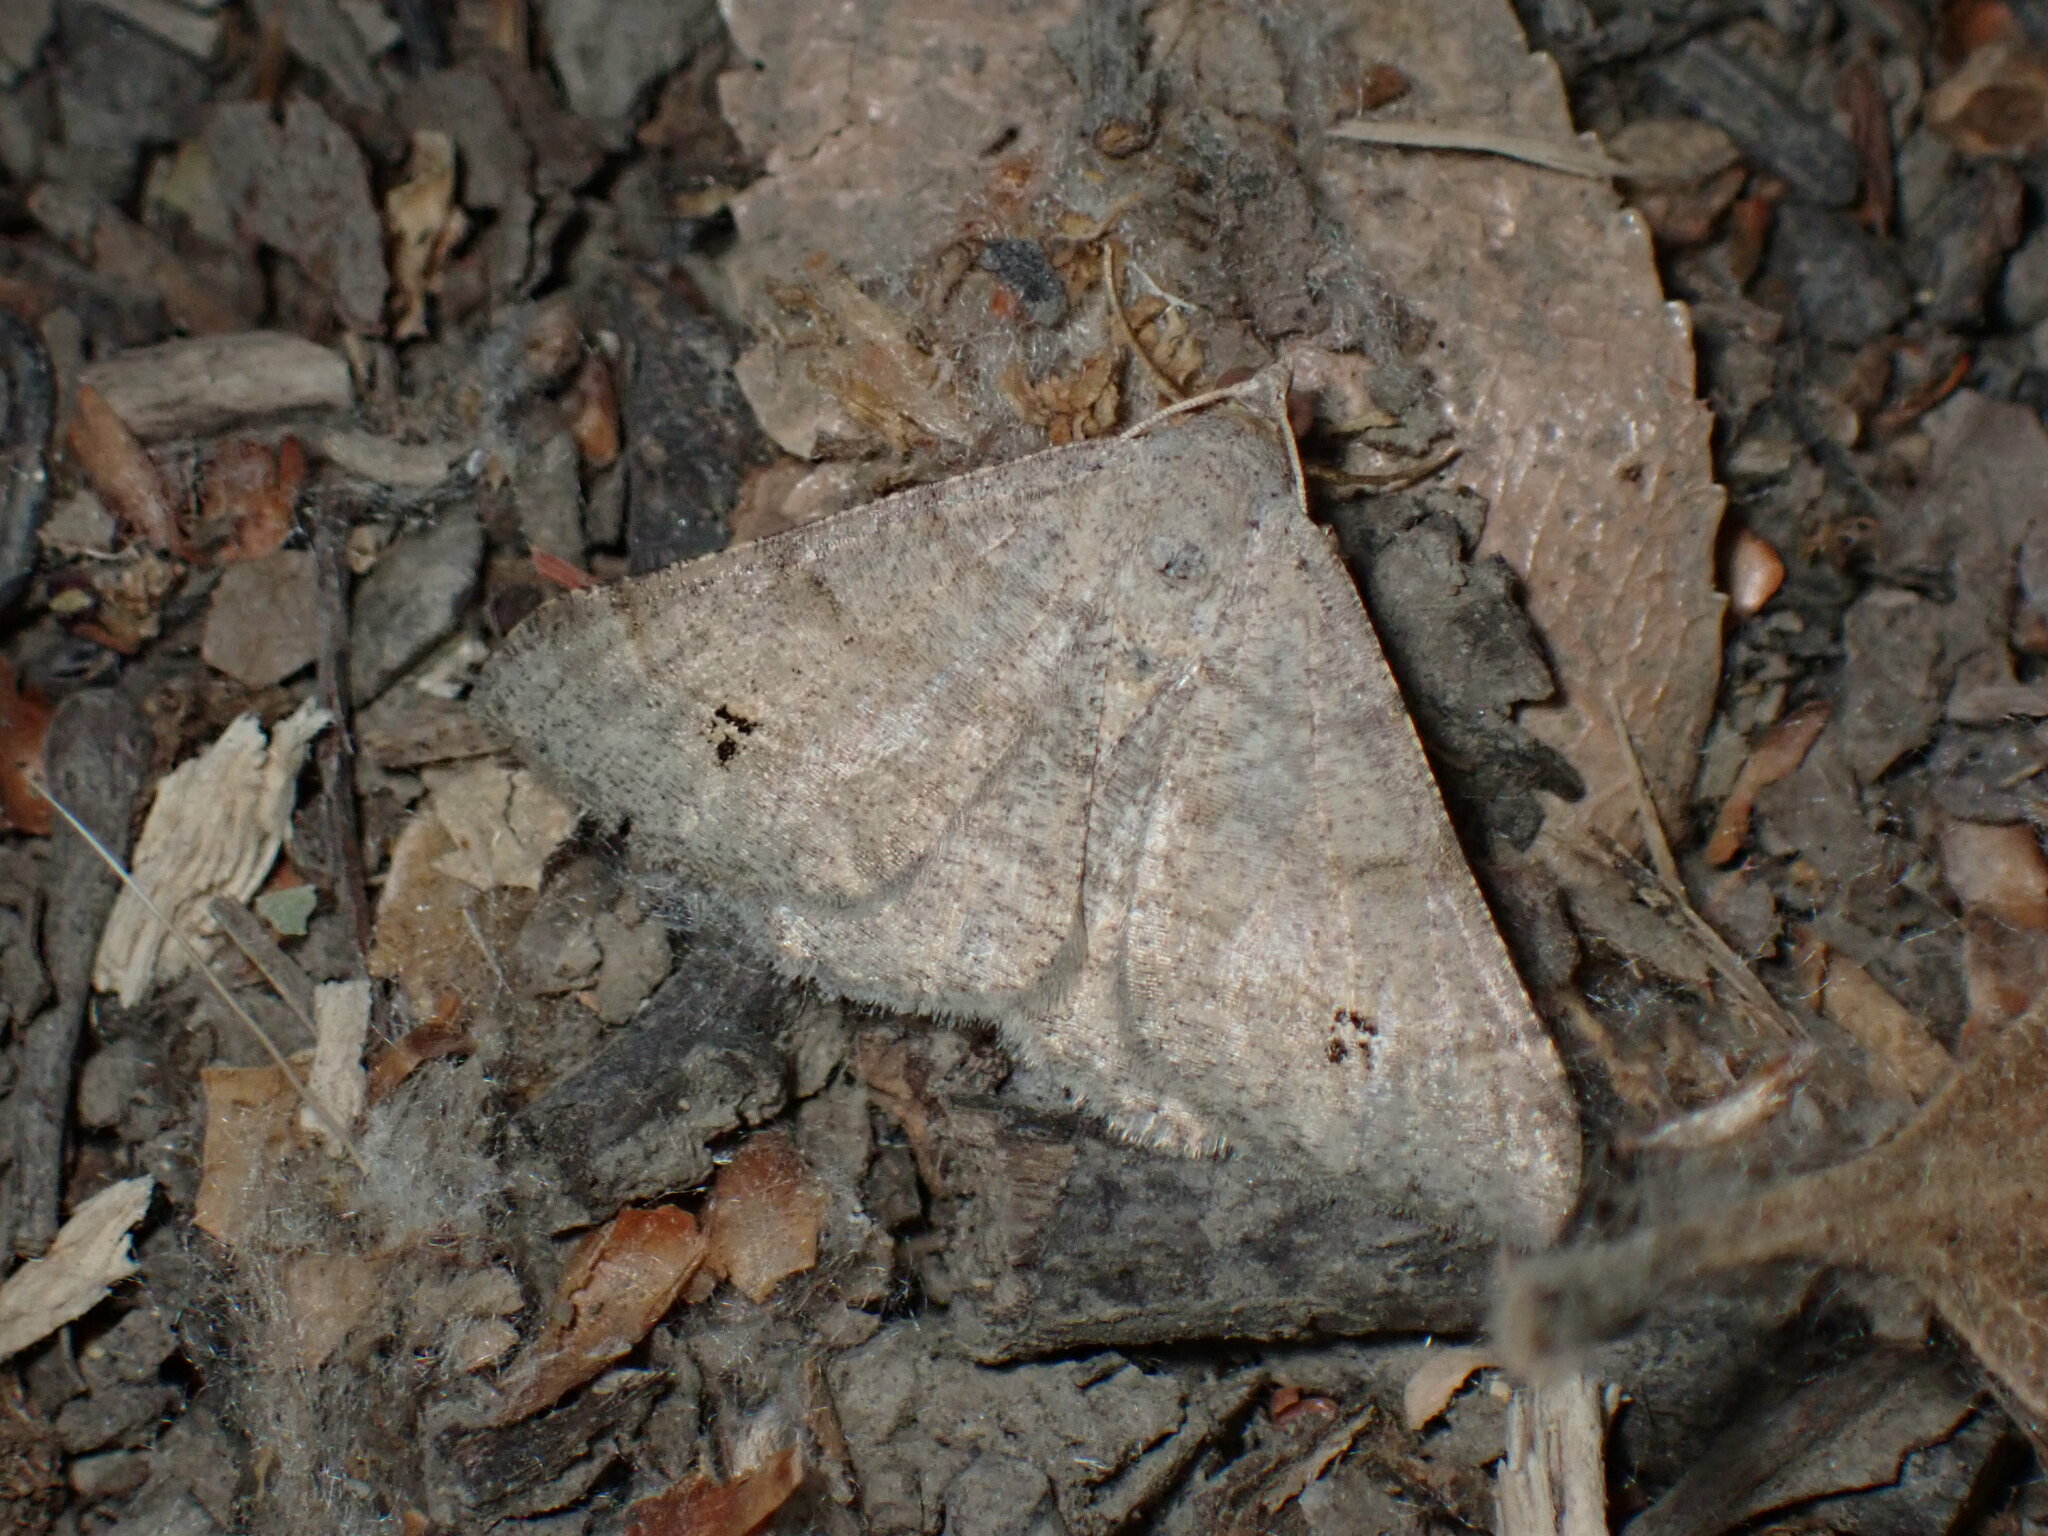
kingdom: Animalia
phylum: Arthropoda
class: Insecta
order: Lepidoptera
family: Geometridae
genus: Digrammia
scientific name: Digrammia muscariata
